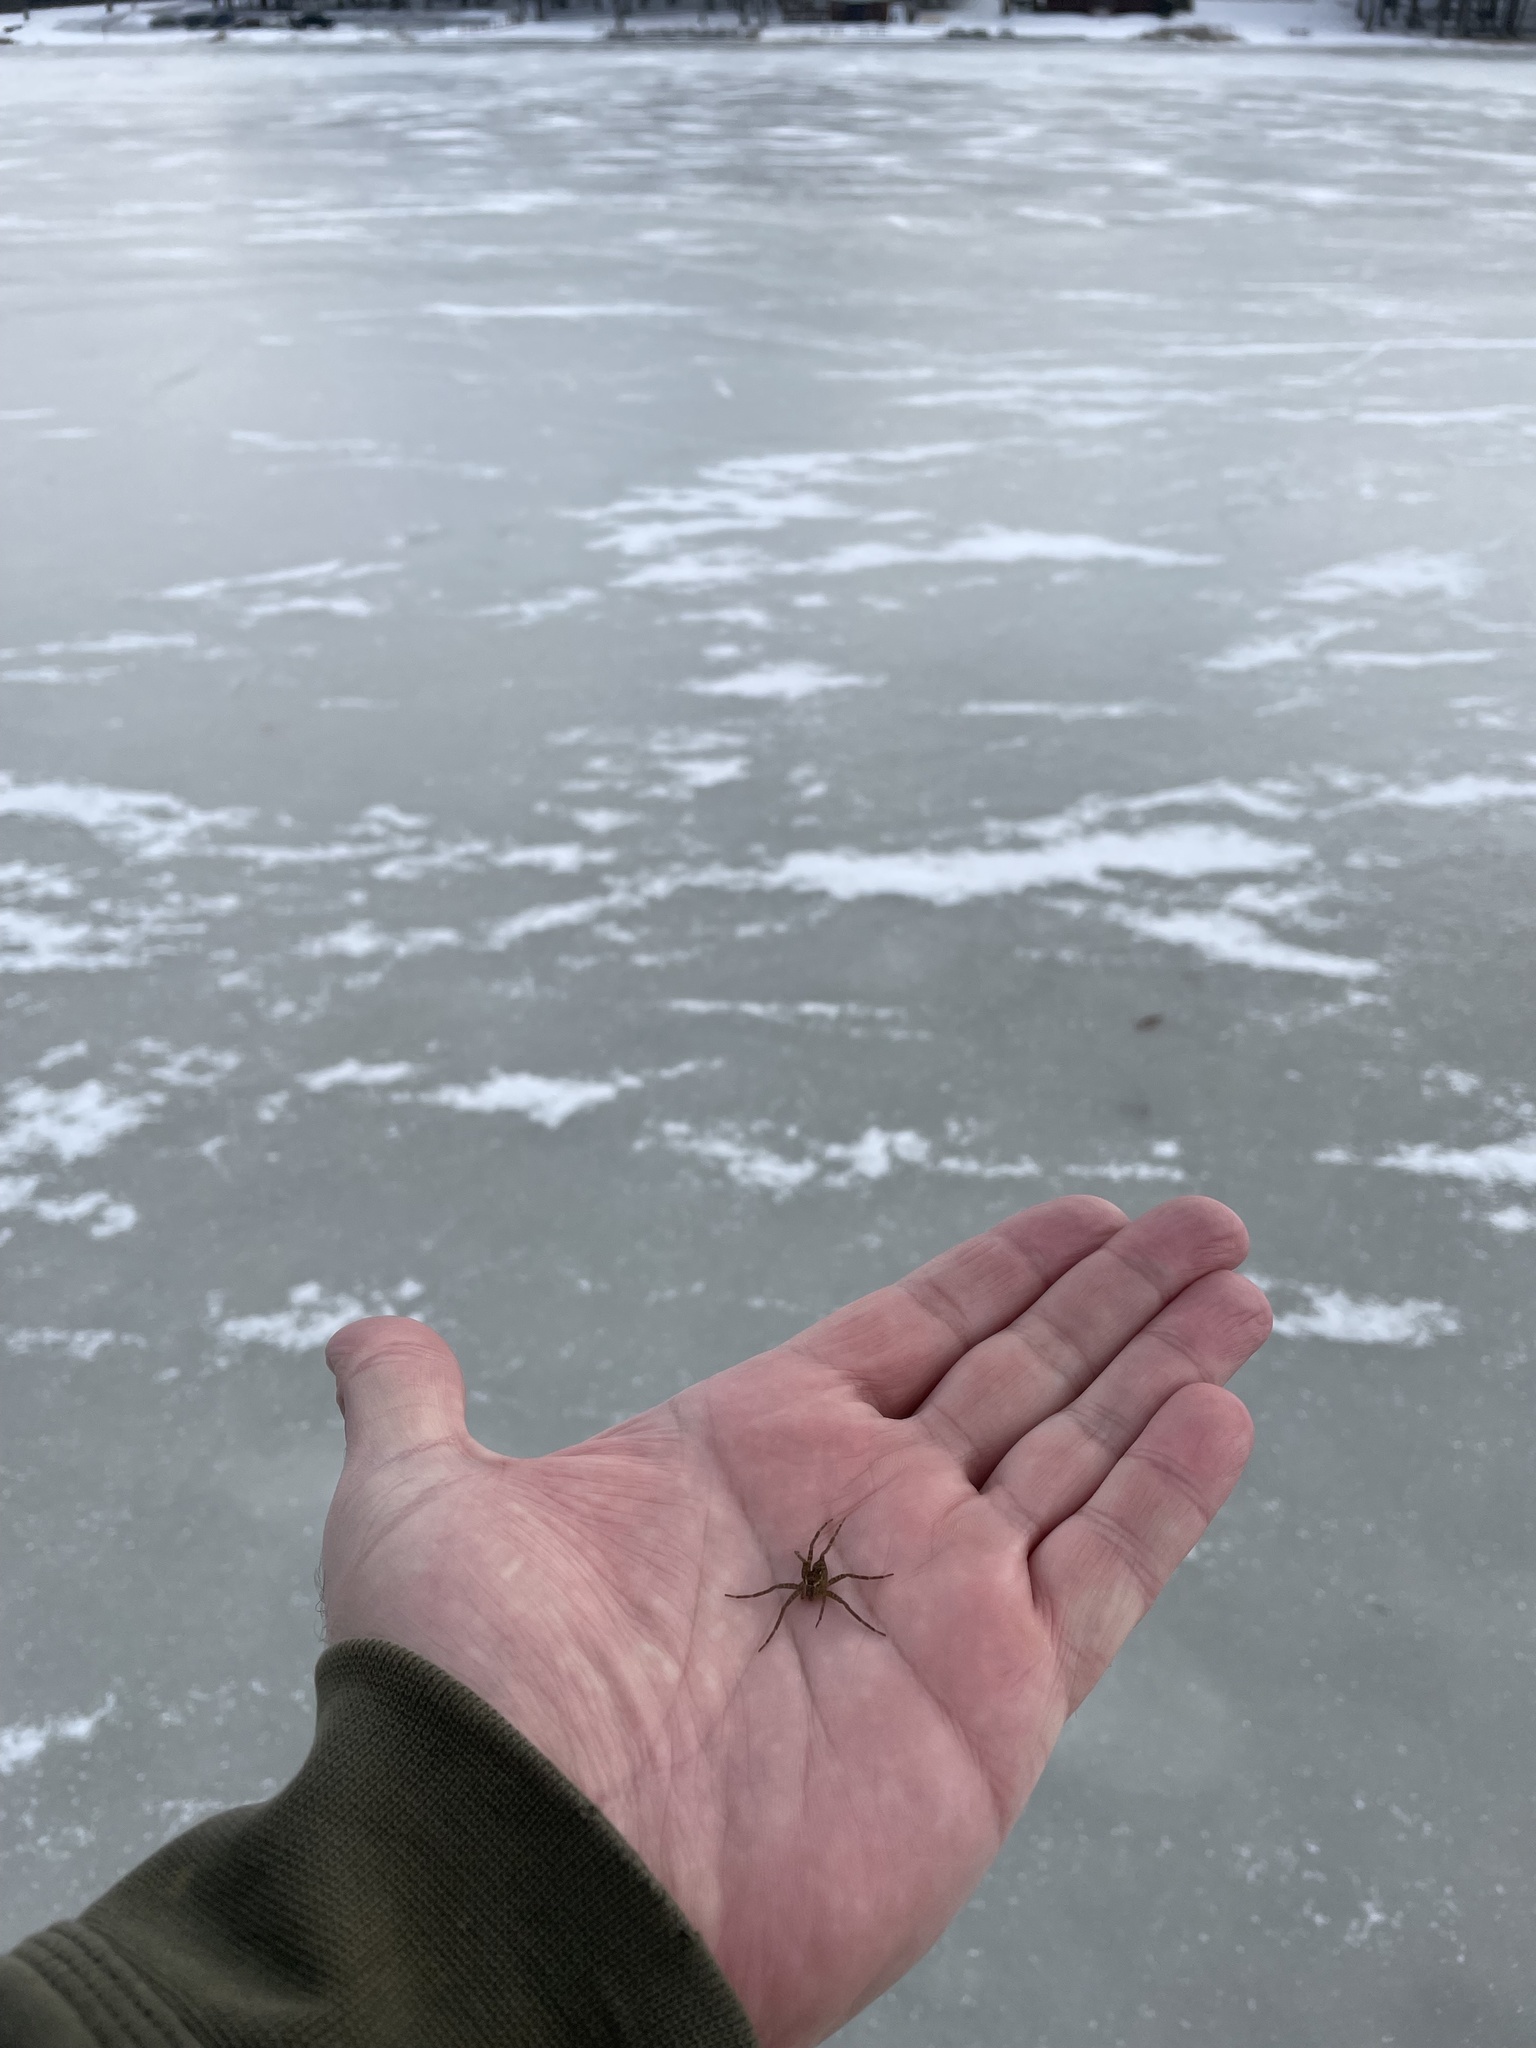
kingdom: Animalia
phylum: Arthropoda
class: Arachnida
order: Araneae
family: Pisauridae
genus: Dolomedes
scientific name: Dolomedes vittatus
